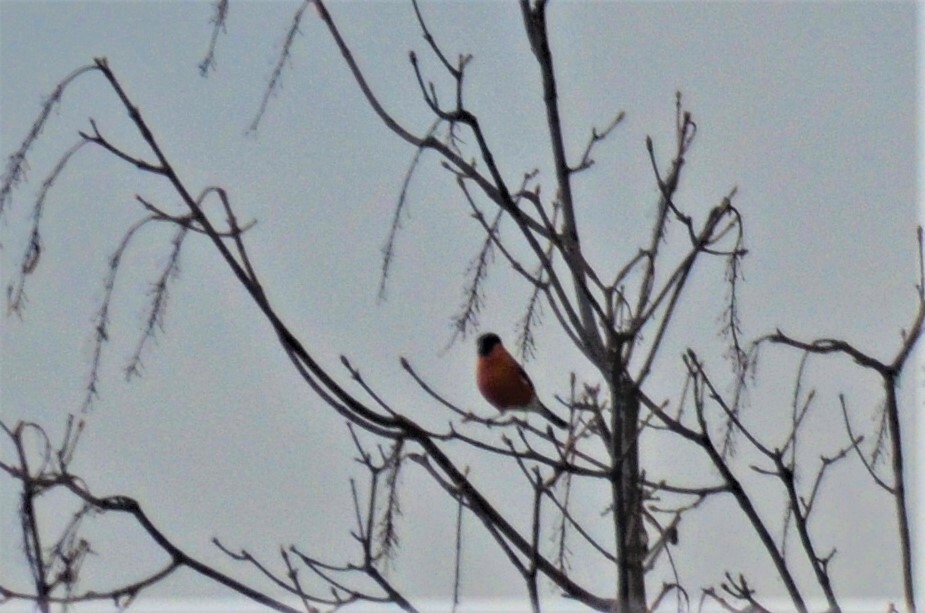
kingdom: Animalia
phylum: Chordata
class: Aves
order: Passeriformes
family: Fringillidae
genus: Pyrrhula
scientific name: Pyrrhula pyrrhula
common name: Eurasian bullfinch
